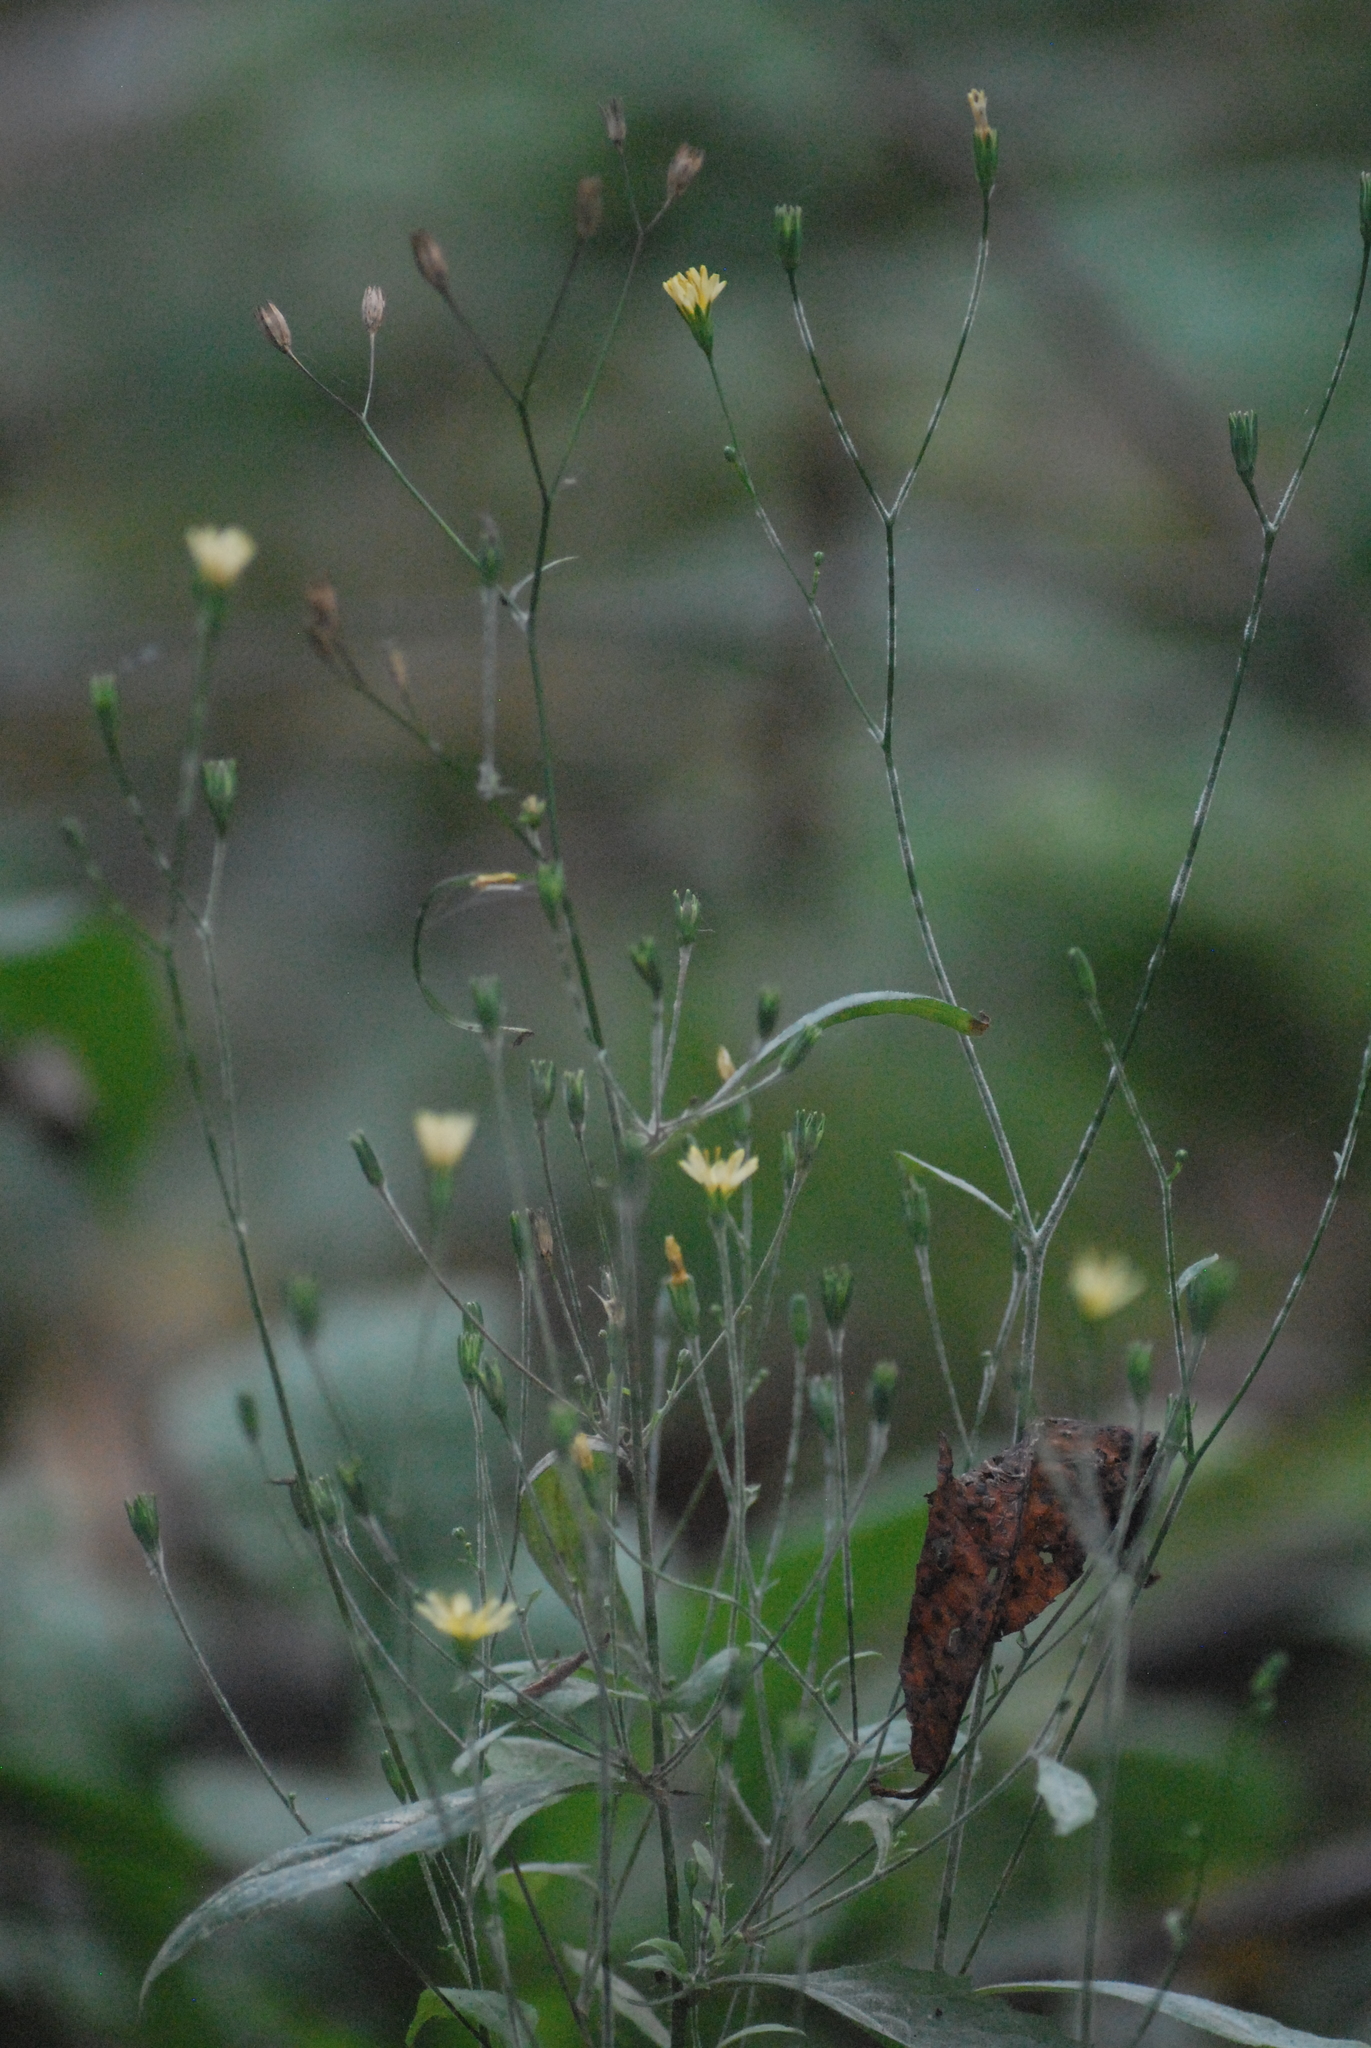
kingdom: Plantae
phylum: Tracheophyta
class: Magnoliopsida
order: Asterales
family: Asteraceae
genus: Lapsana
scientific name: Lapsana communis
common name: Nipplewort
